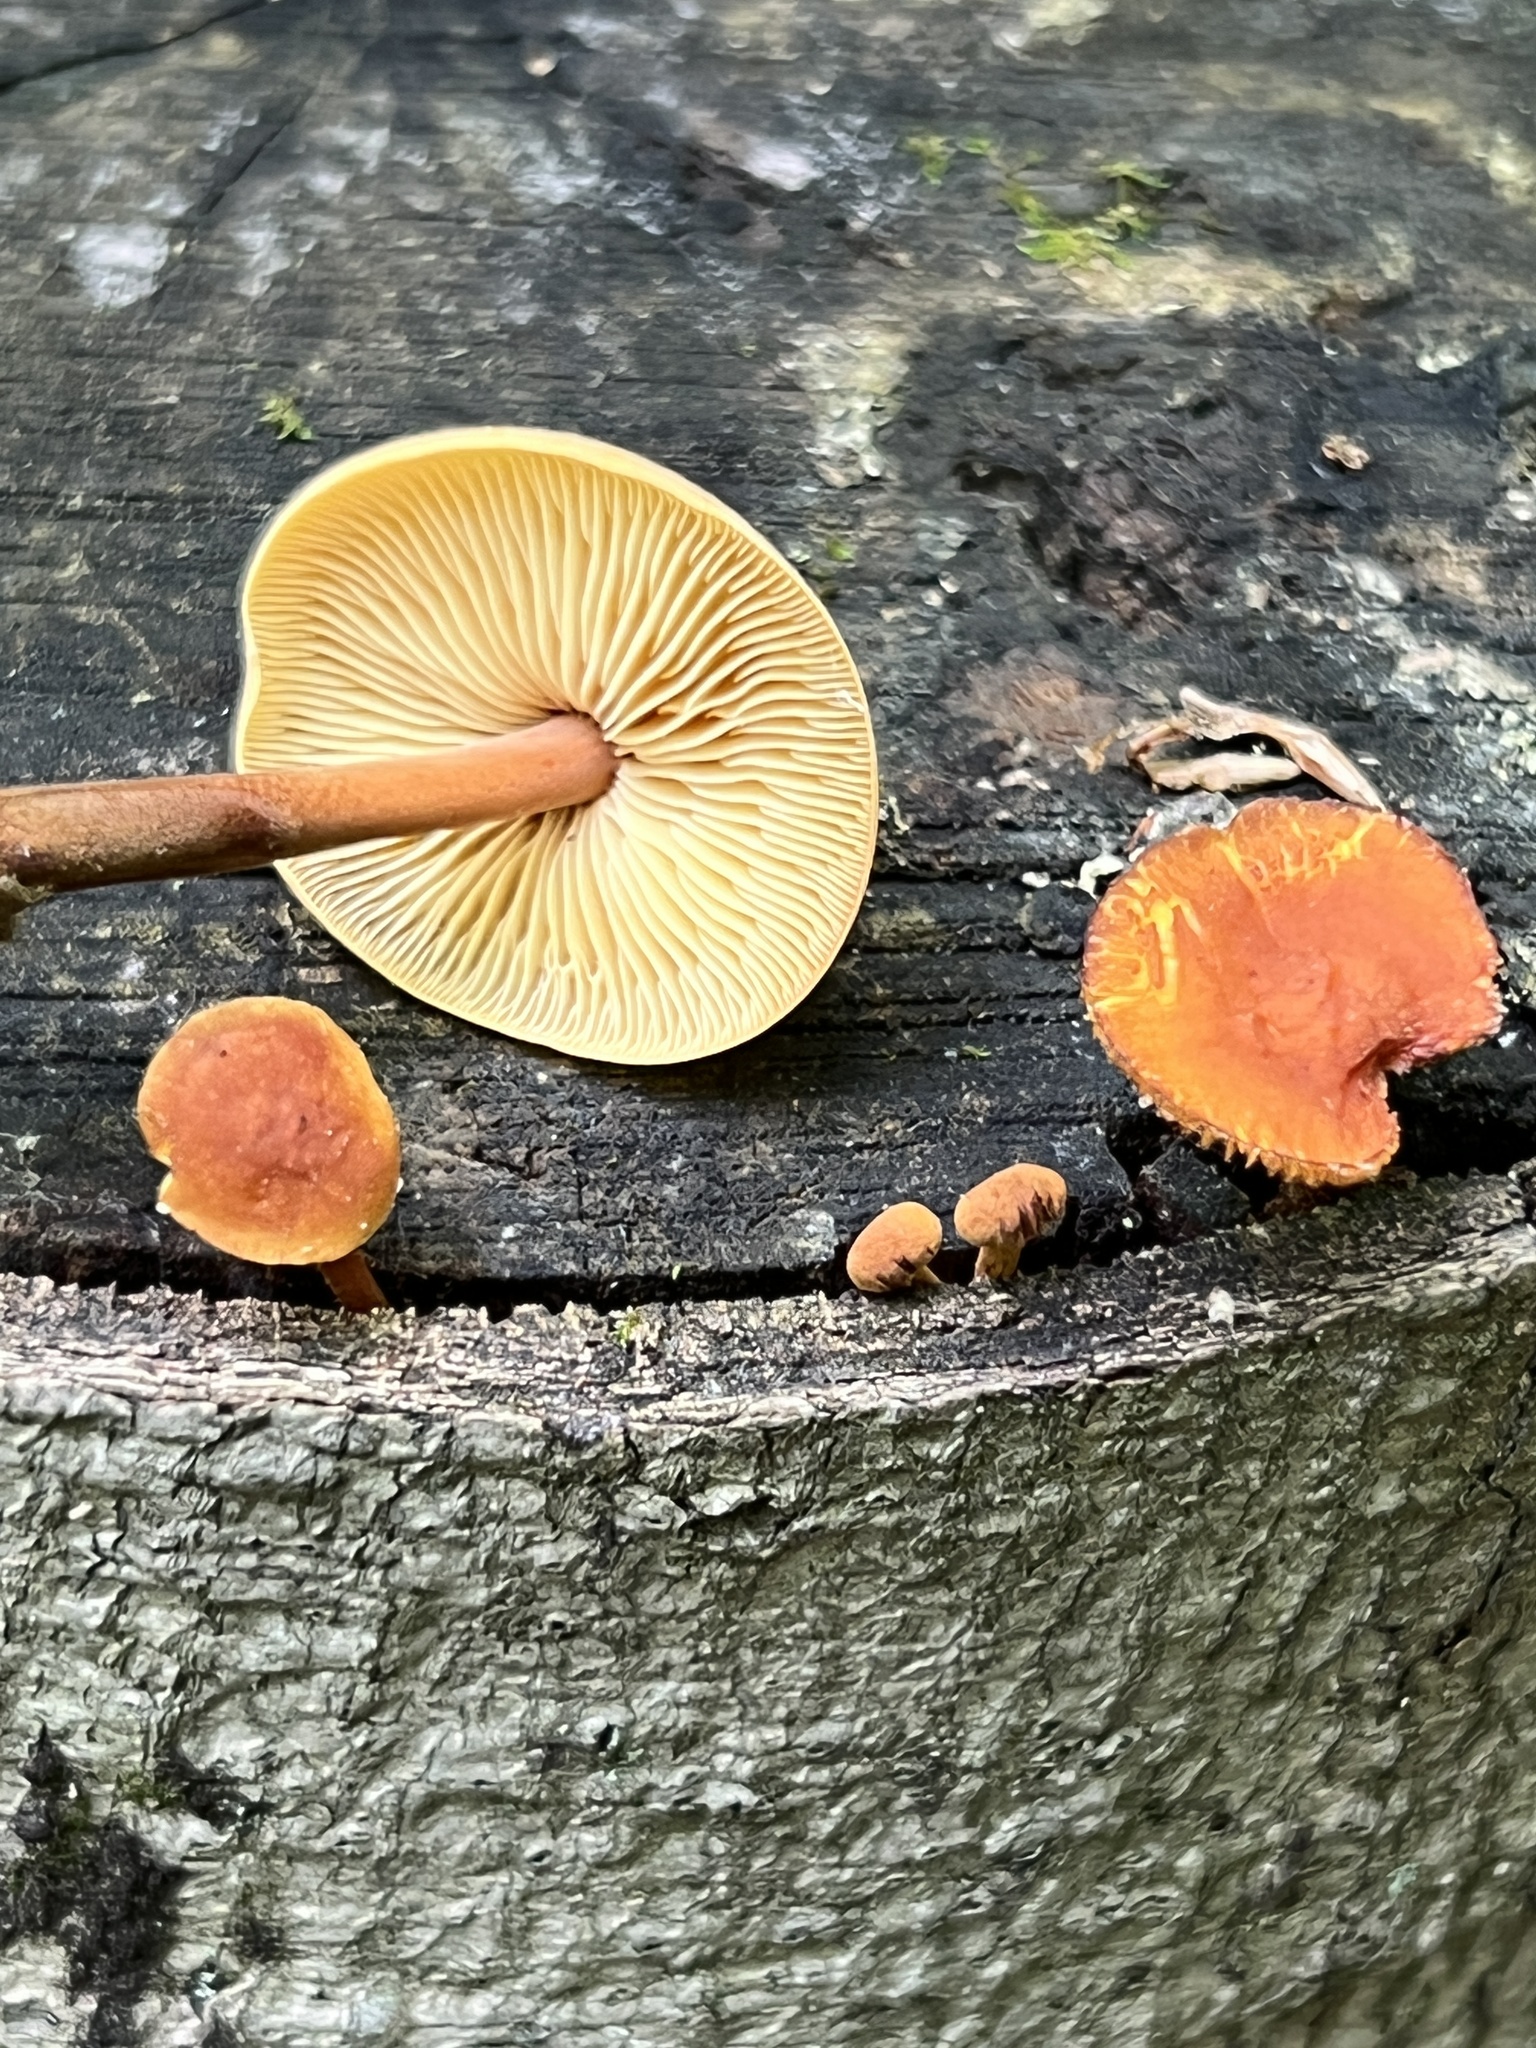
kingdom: Fungi
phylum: Basidiomycota
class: Agaricomycetes
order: Agaricales
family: Mycenaceae
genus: Xeromphalina
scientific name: Xeromphalina tenuipes
